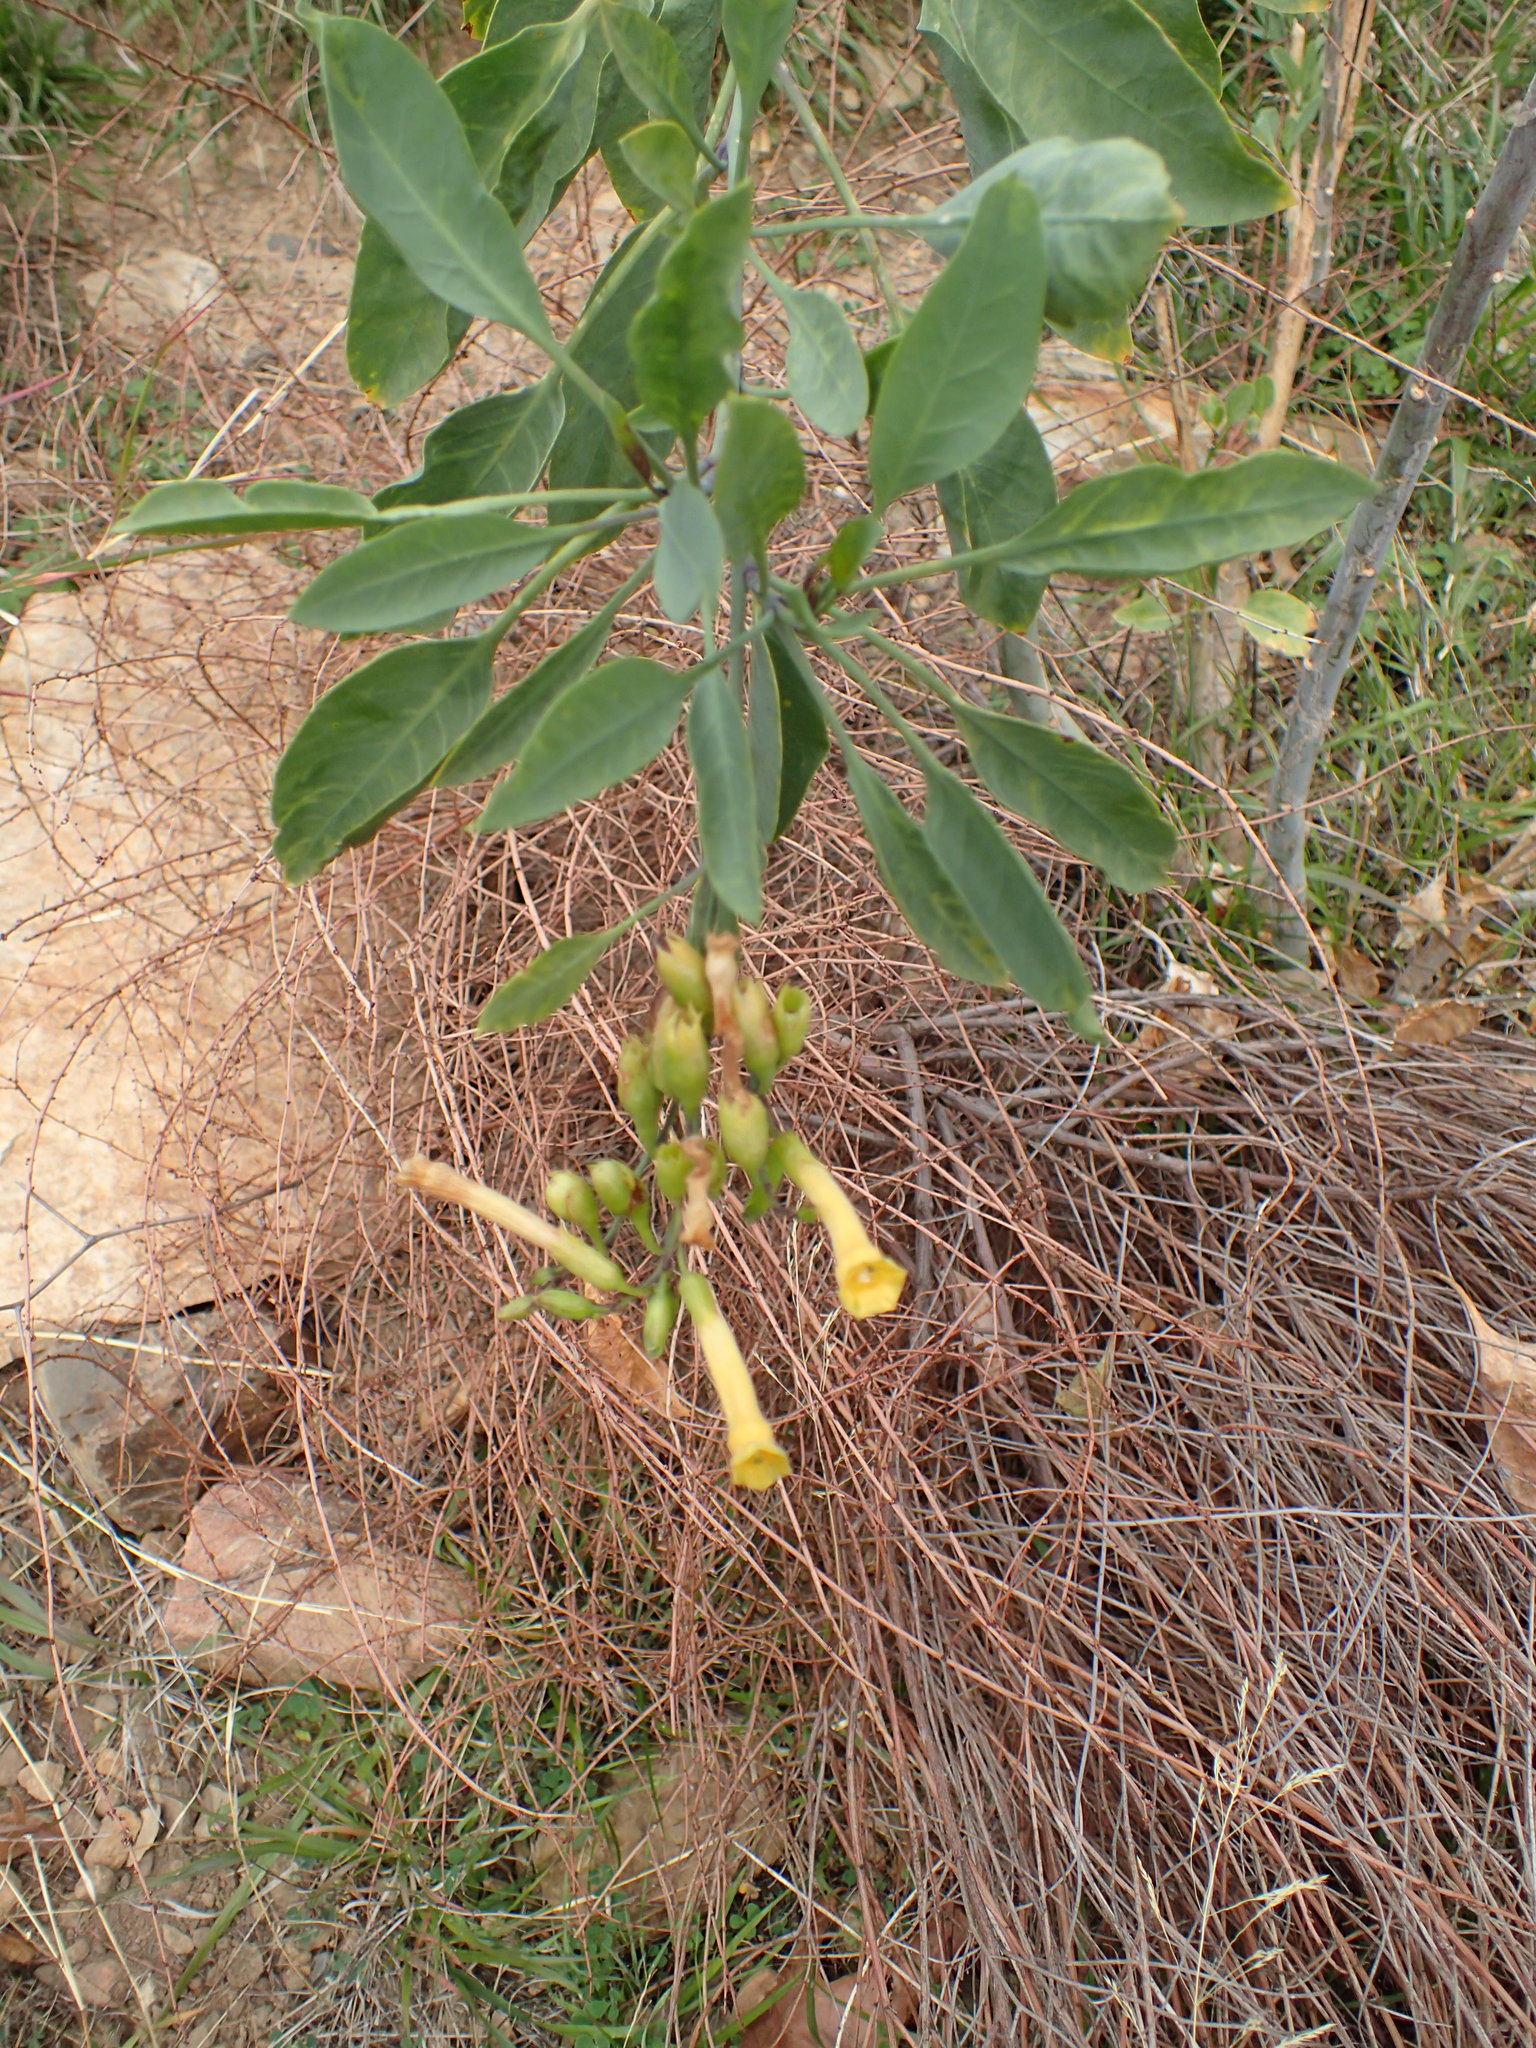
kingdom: Plantae
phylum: Tracheophyta
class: Magnoliopsida
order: Solanales
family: Solanaceae
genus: Nicotiana
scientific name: Nicotiana glauca
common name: Tree tobacco
